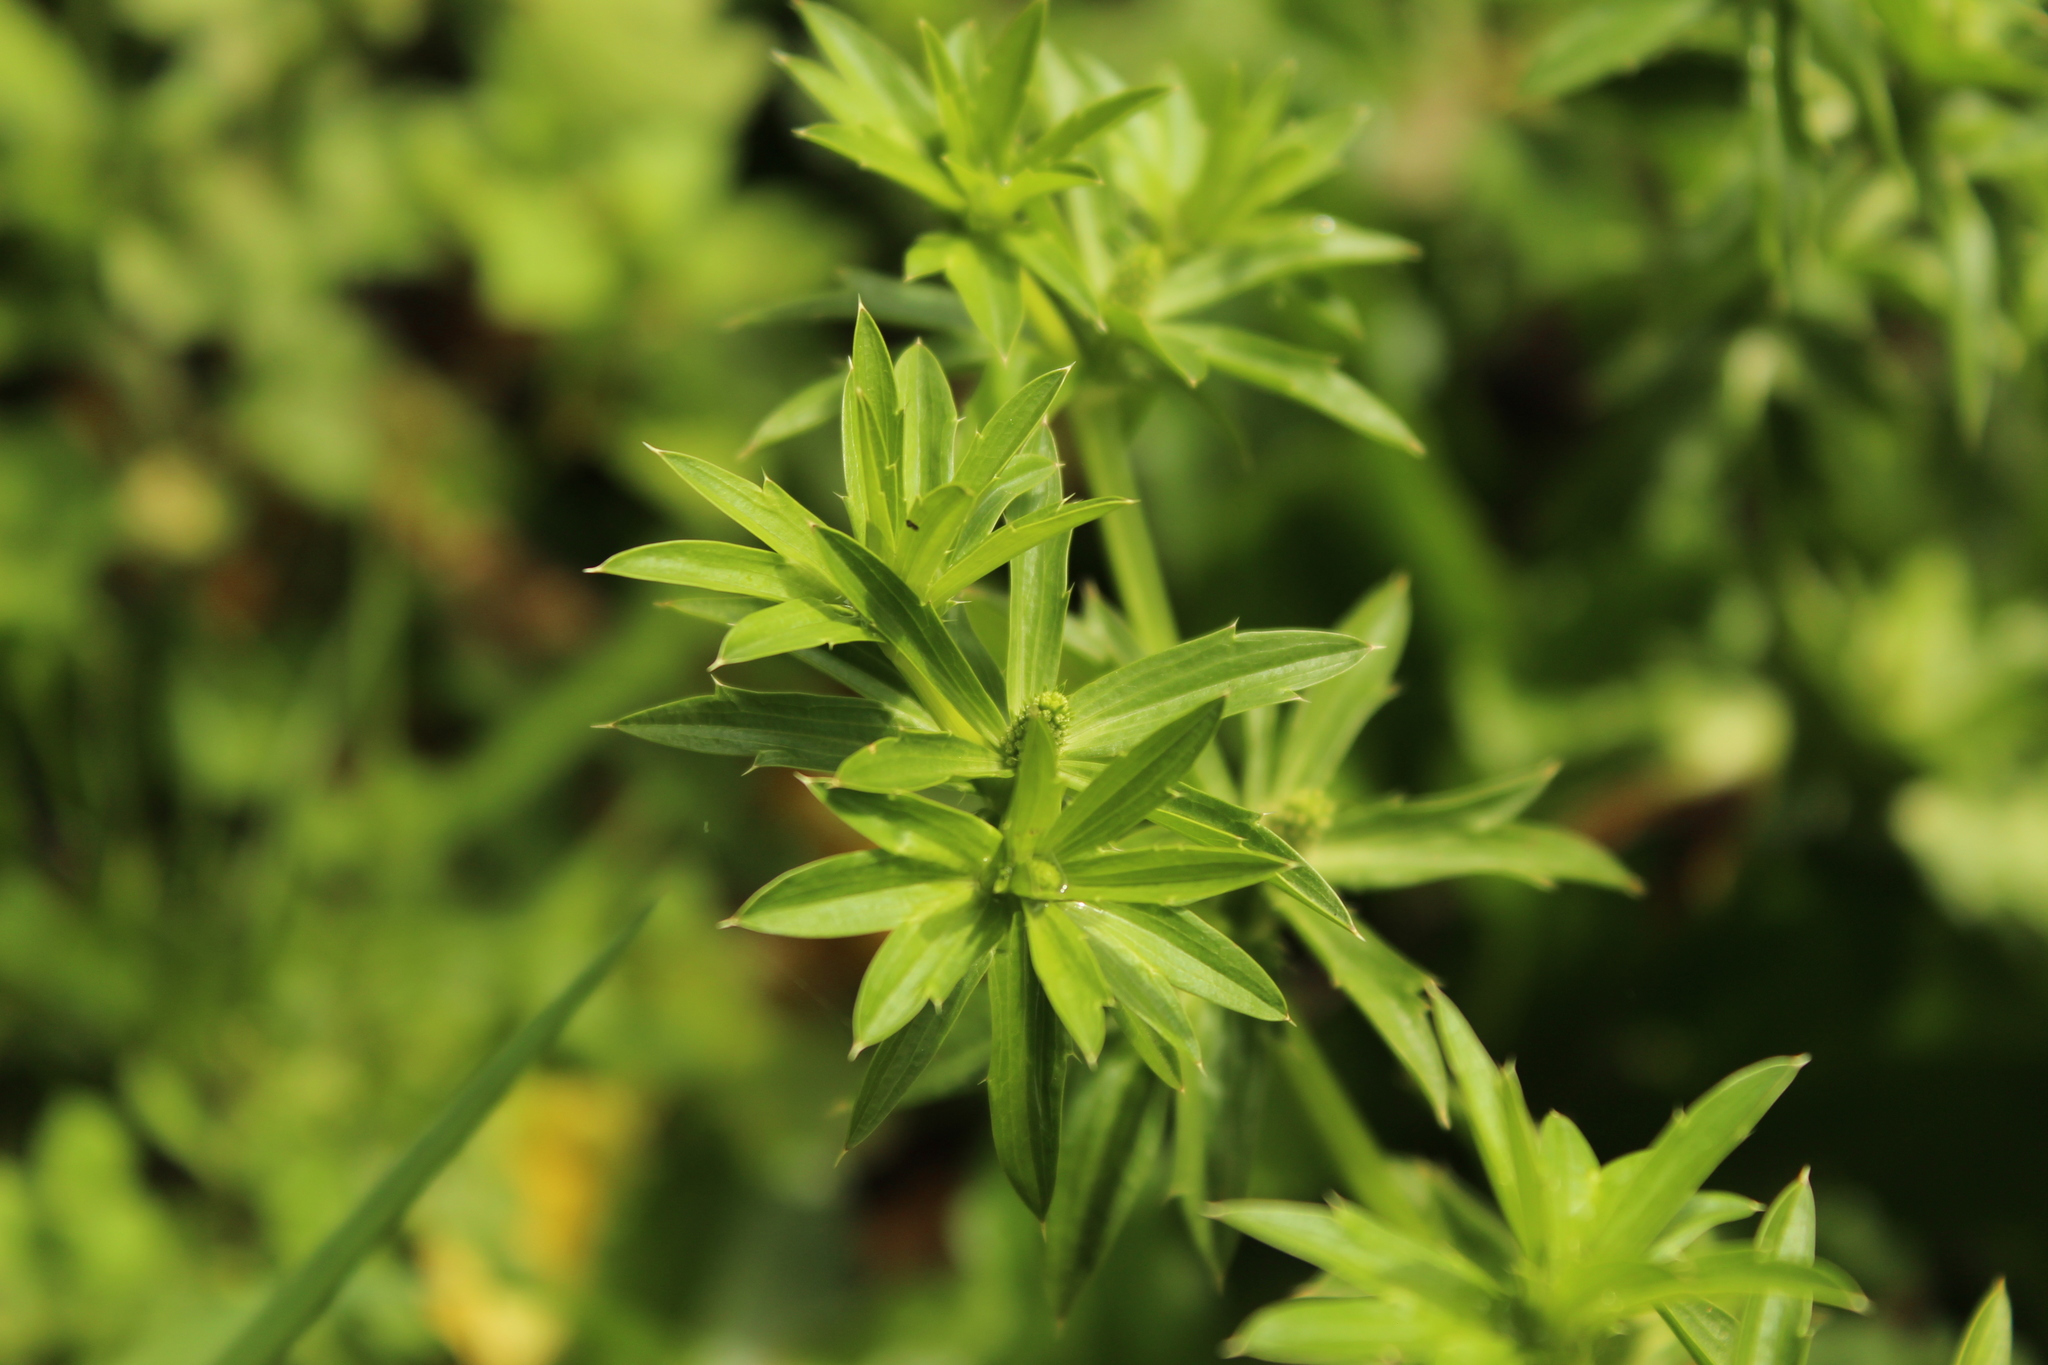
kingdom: Plantae
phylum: Tracheophyta
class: Magnoliopsida
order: Apiales
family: Apiaceae
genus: Eryngium
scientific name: Eryngium foetidum
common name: Fitweed
